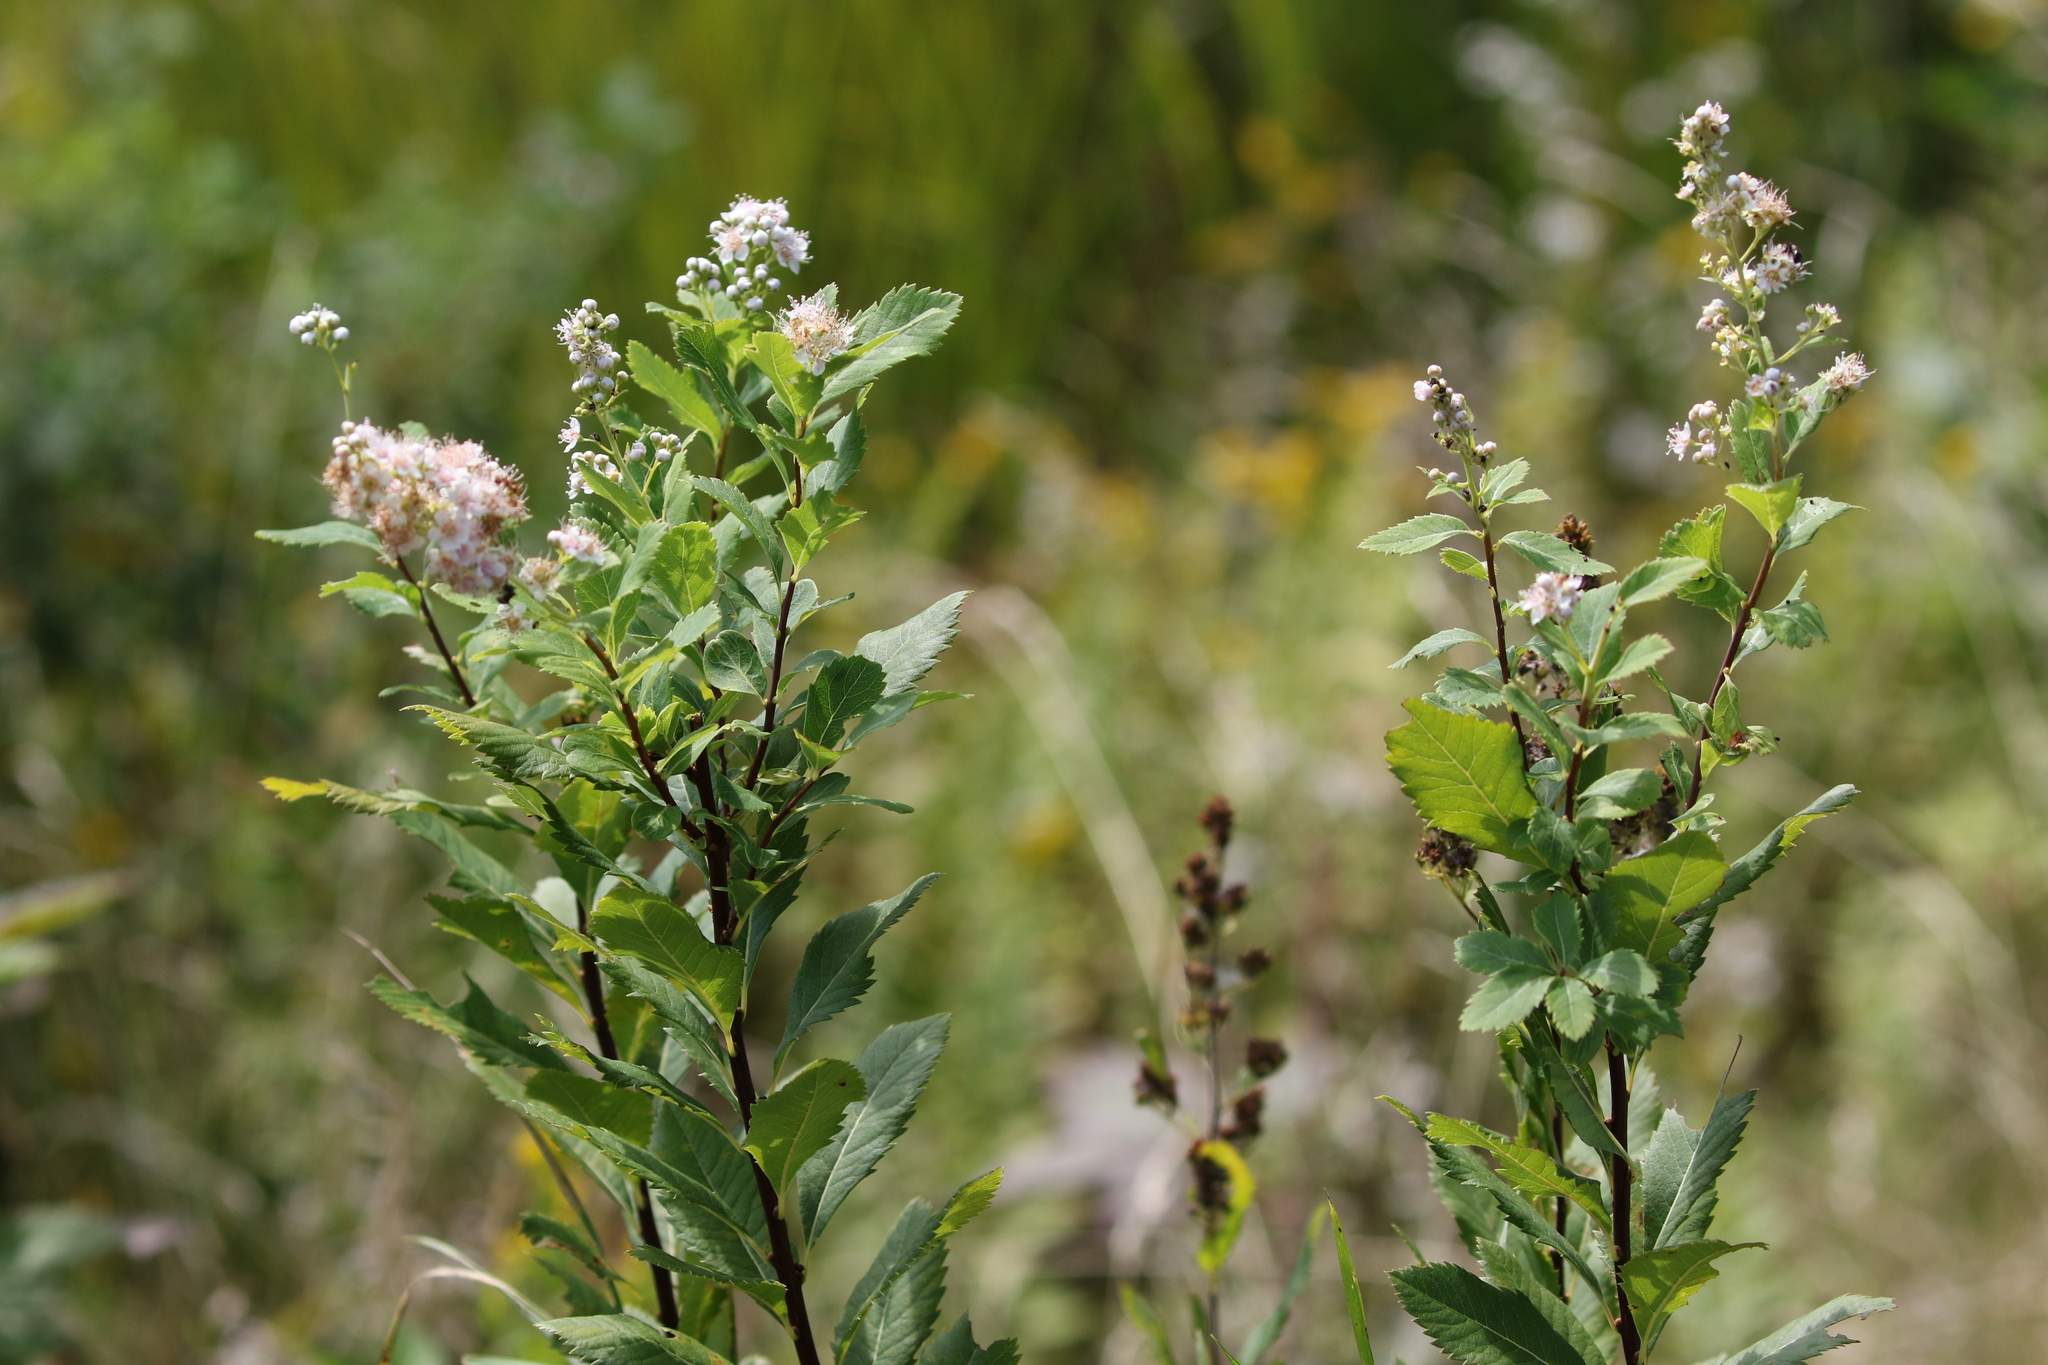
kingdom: Plantae
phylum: Tracheophyta
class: Magnoliopsida
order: Rosales
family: Rosaceae
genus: Spiraea
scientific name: Spiraea alba
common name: Pale bridewort
